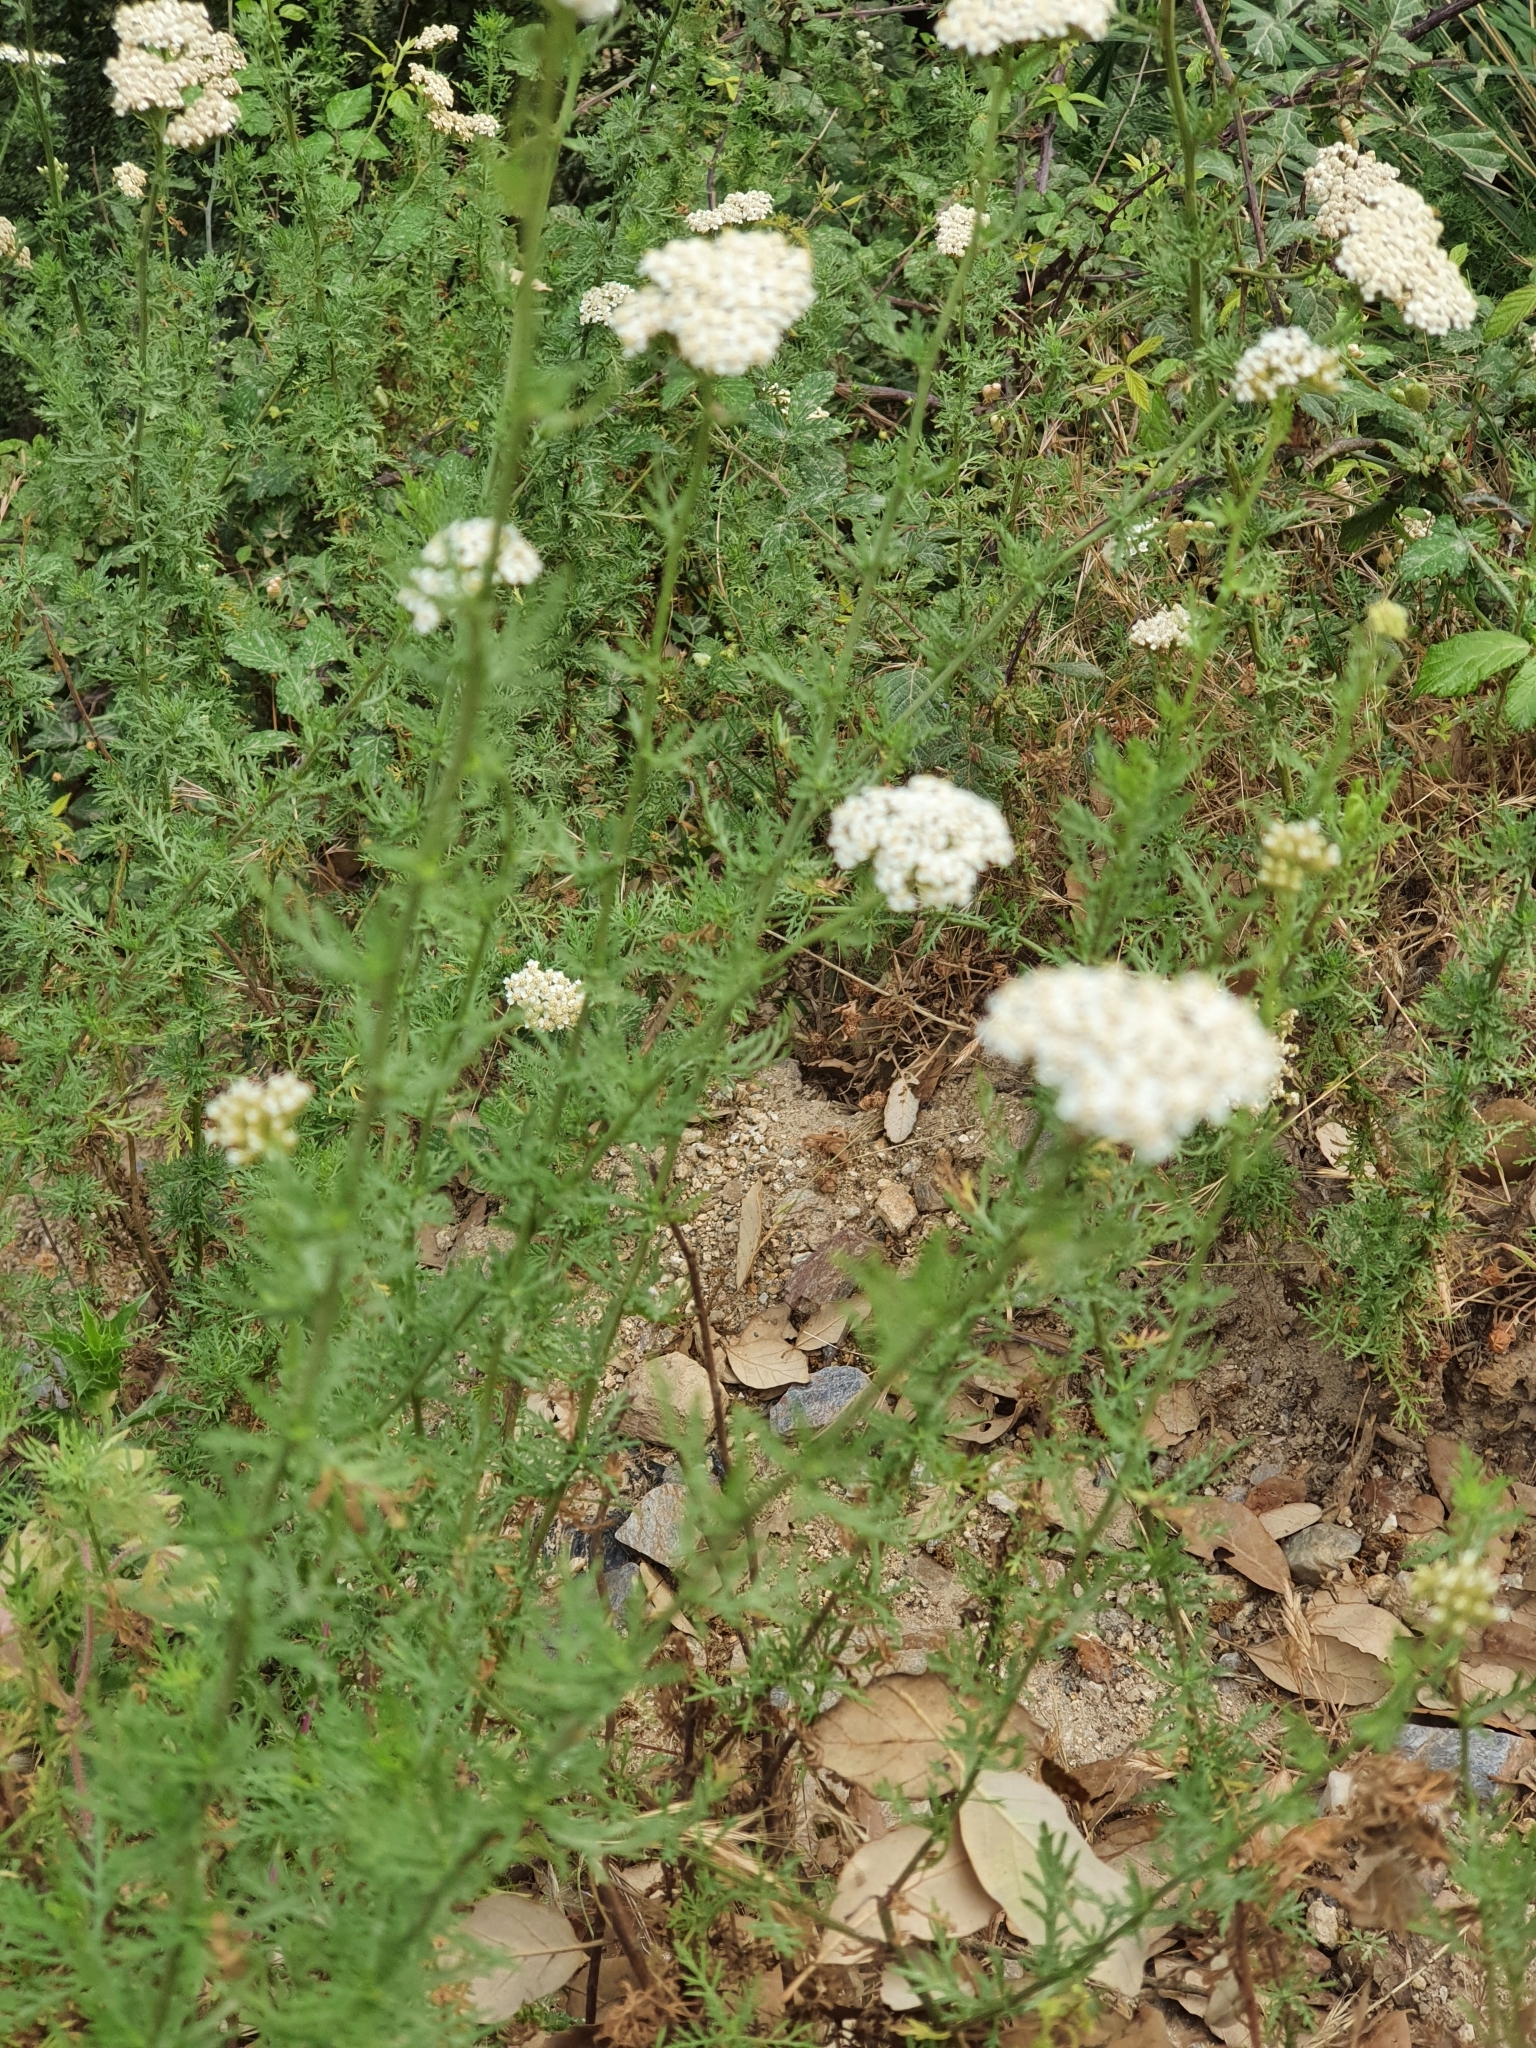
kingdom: Plantae
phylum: Tracheophyta
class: Magnoliopsida
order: Asterales
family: Asteraceae
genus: Achillea
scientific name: Achillea ligustica
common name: Southern yarrow
